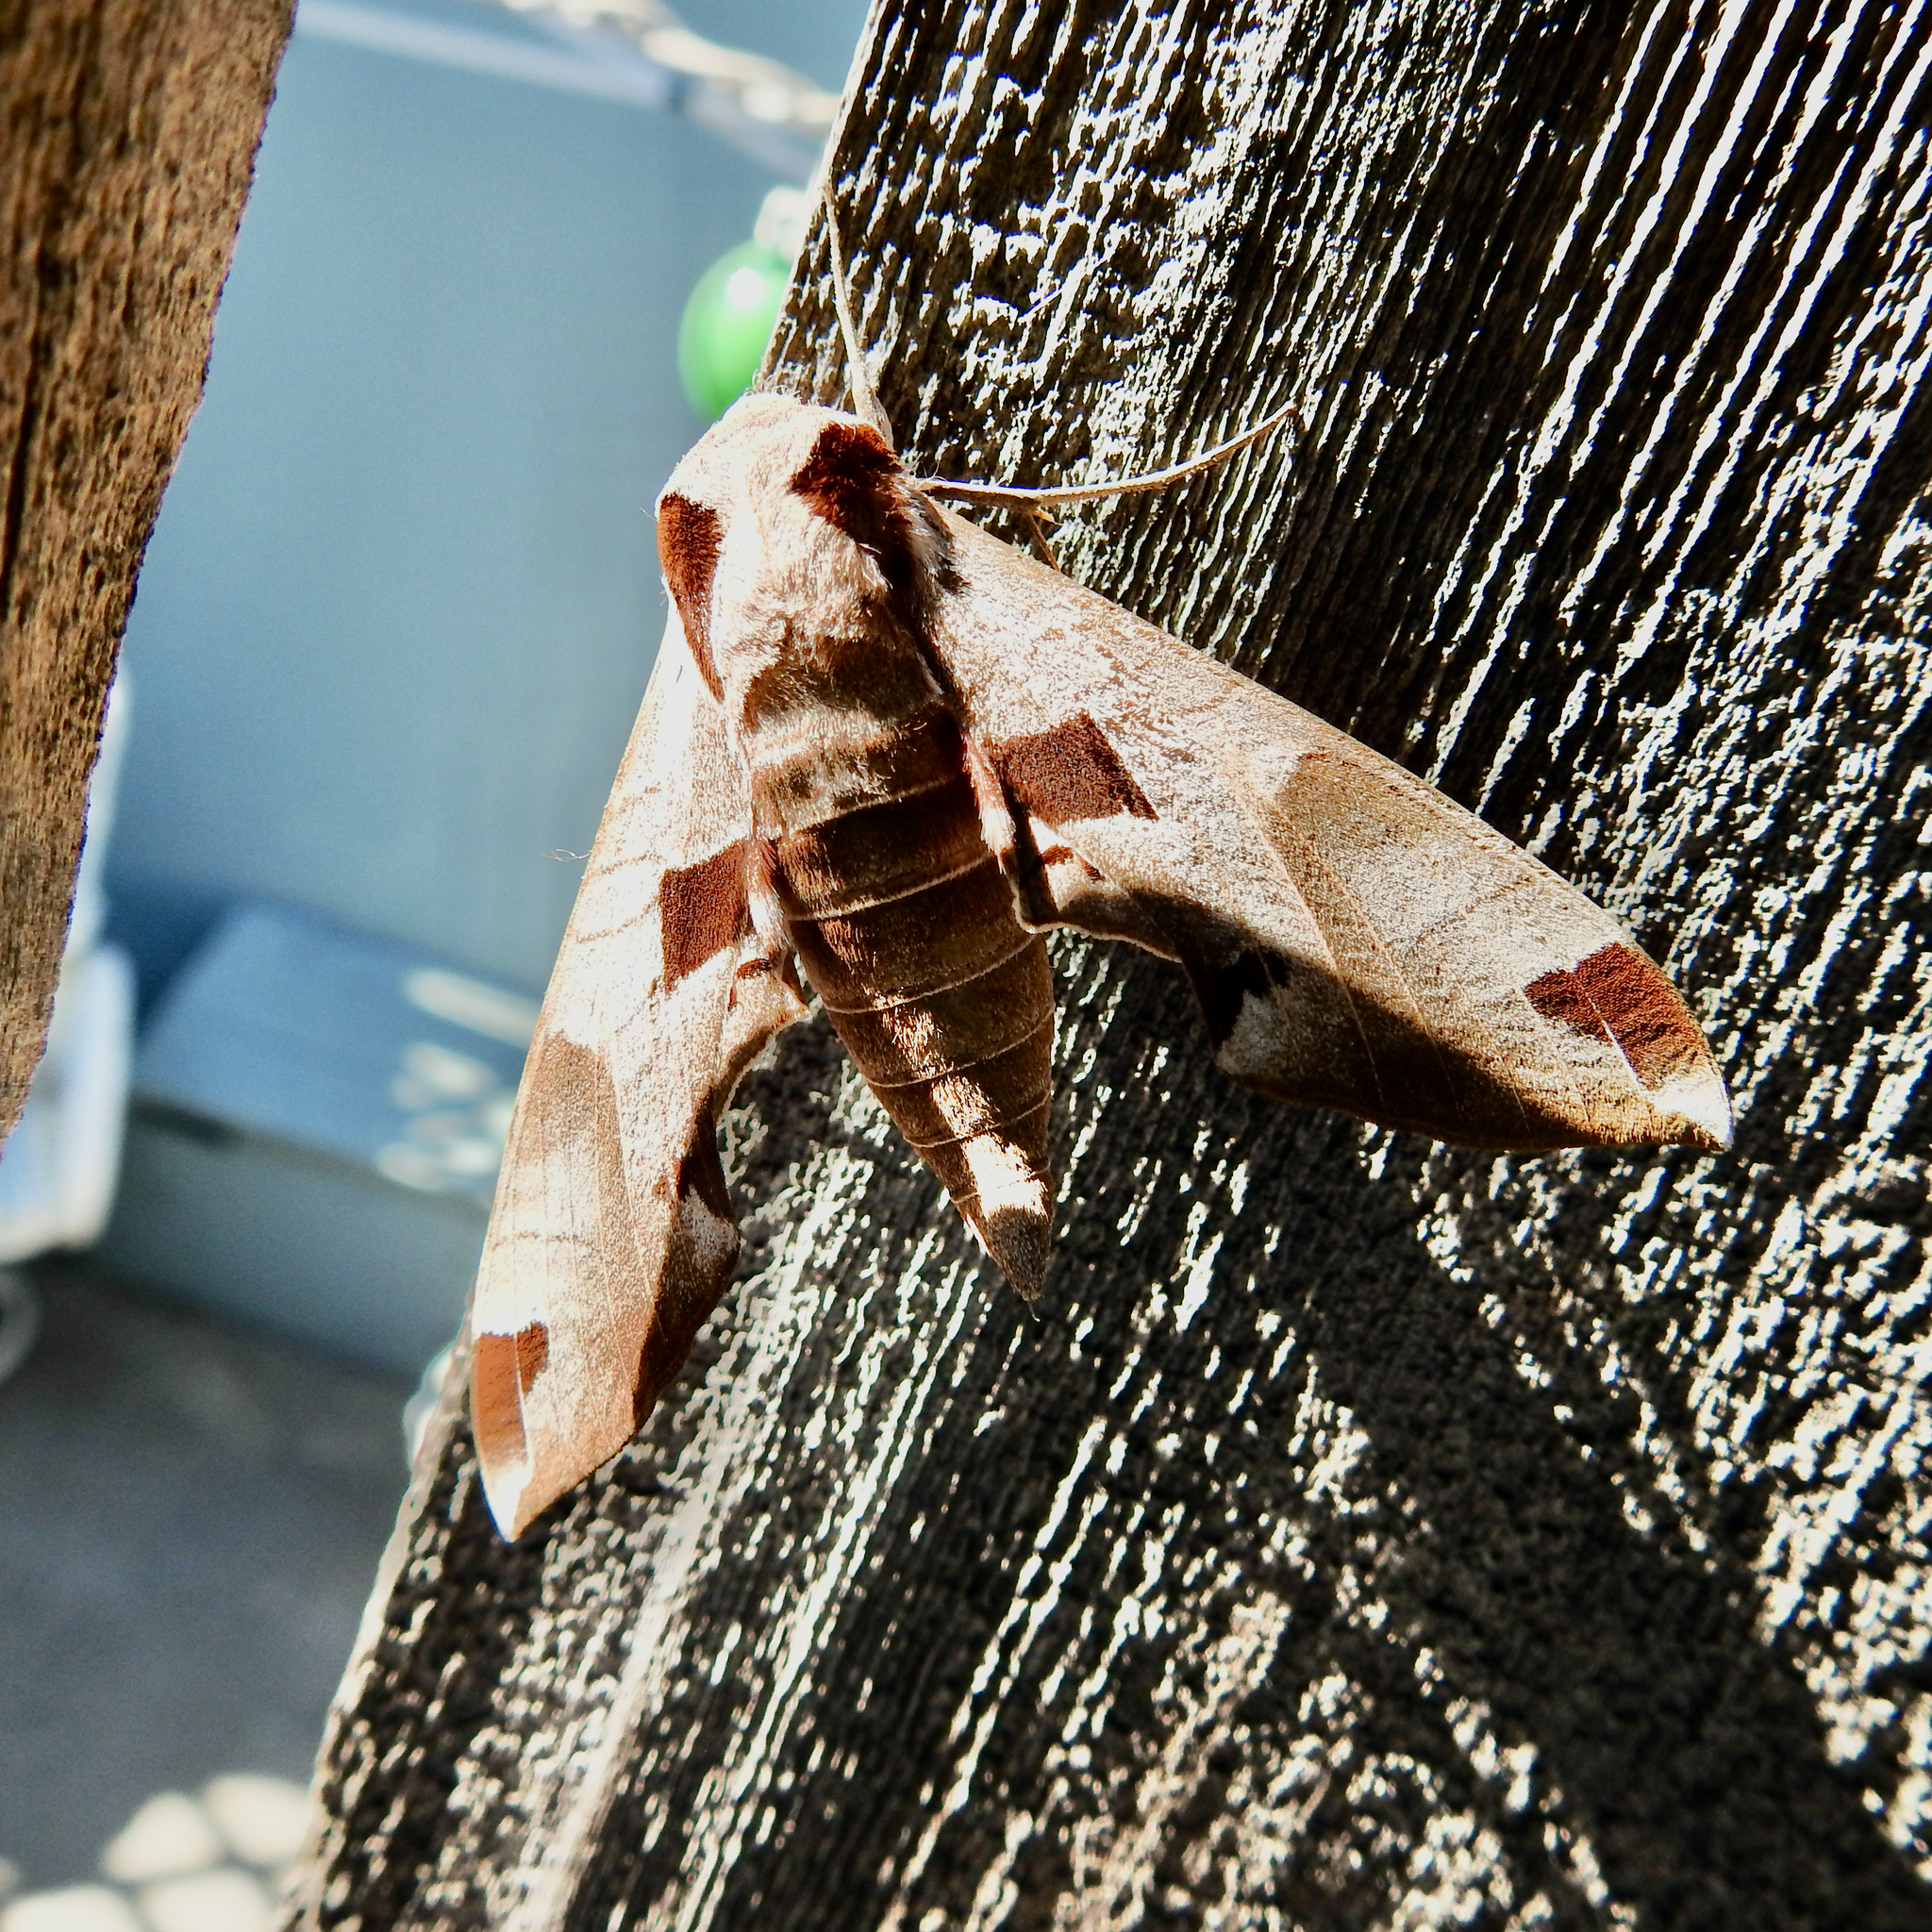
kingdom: Animalia
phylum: Arthropoda
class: Insecta
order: Lepidoptera
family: Sphingidae
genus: Eumorpha
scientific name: Eumorpha achemon
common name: Achemon sphinx
